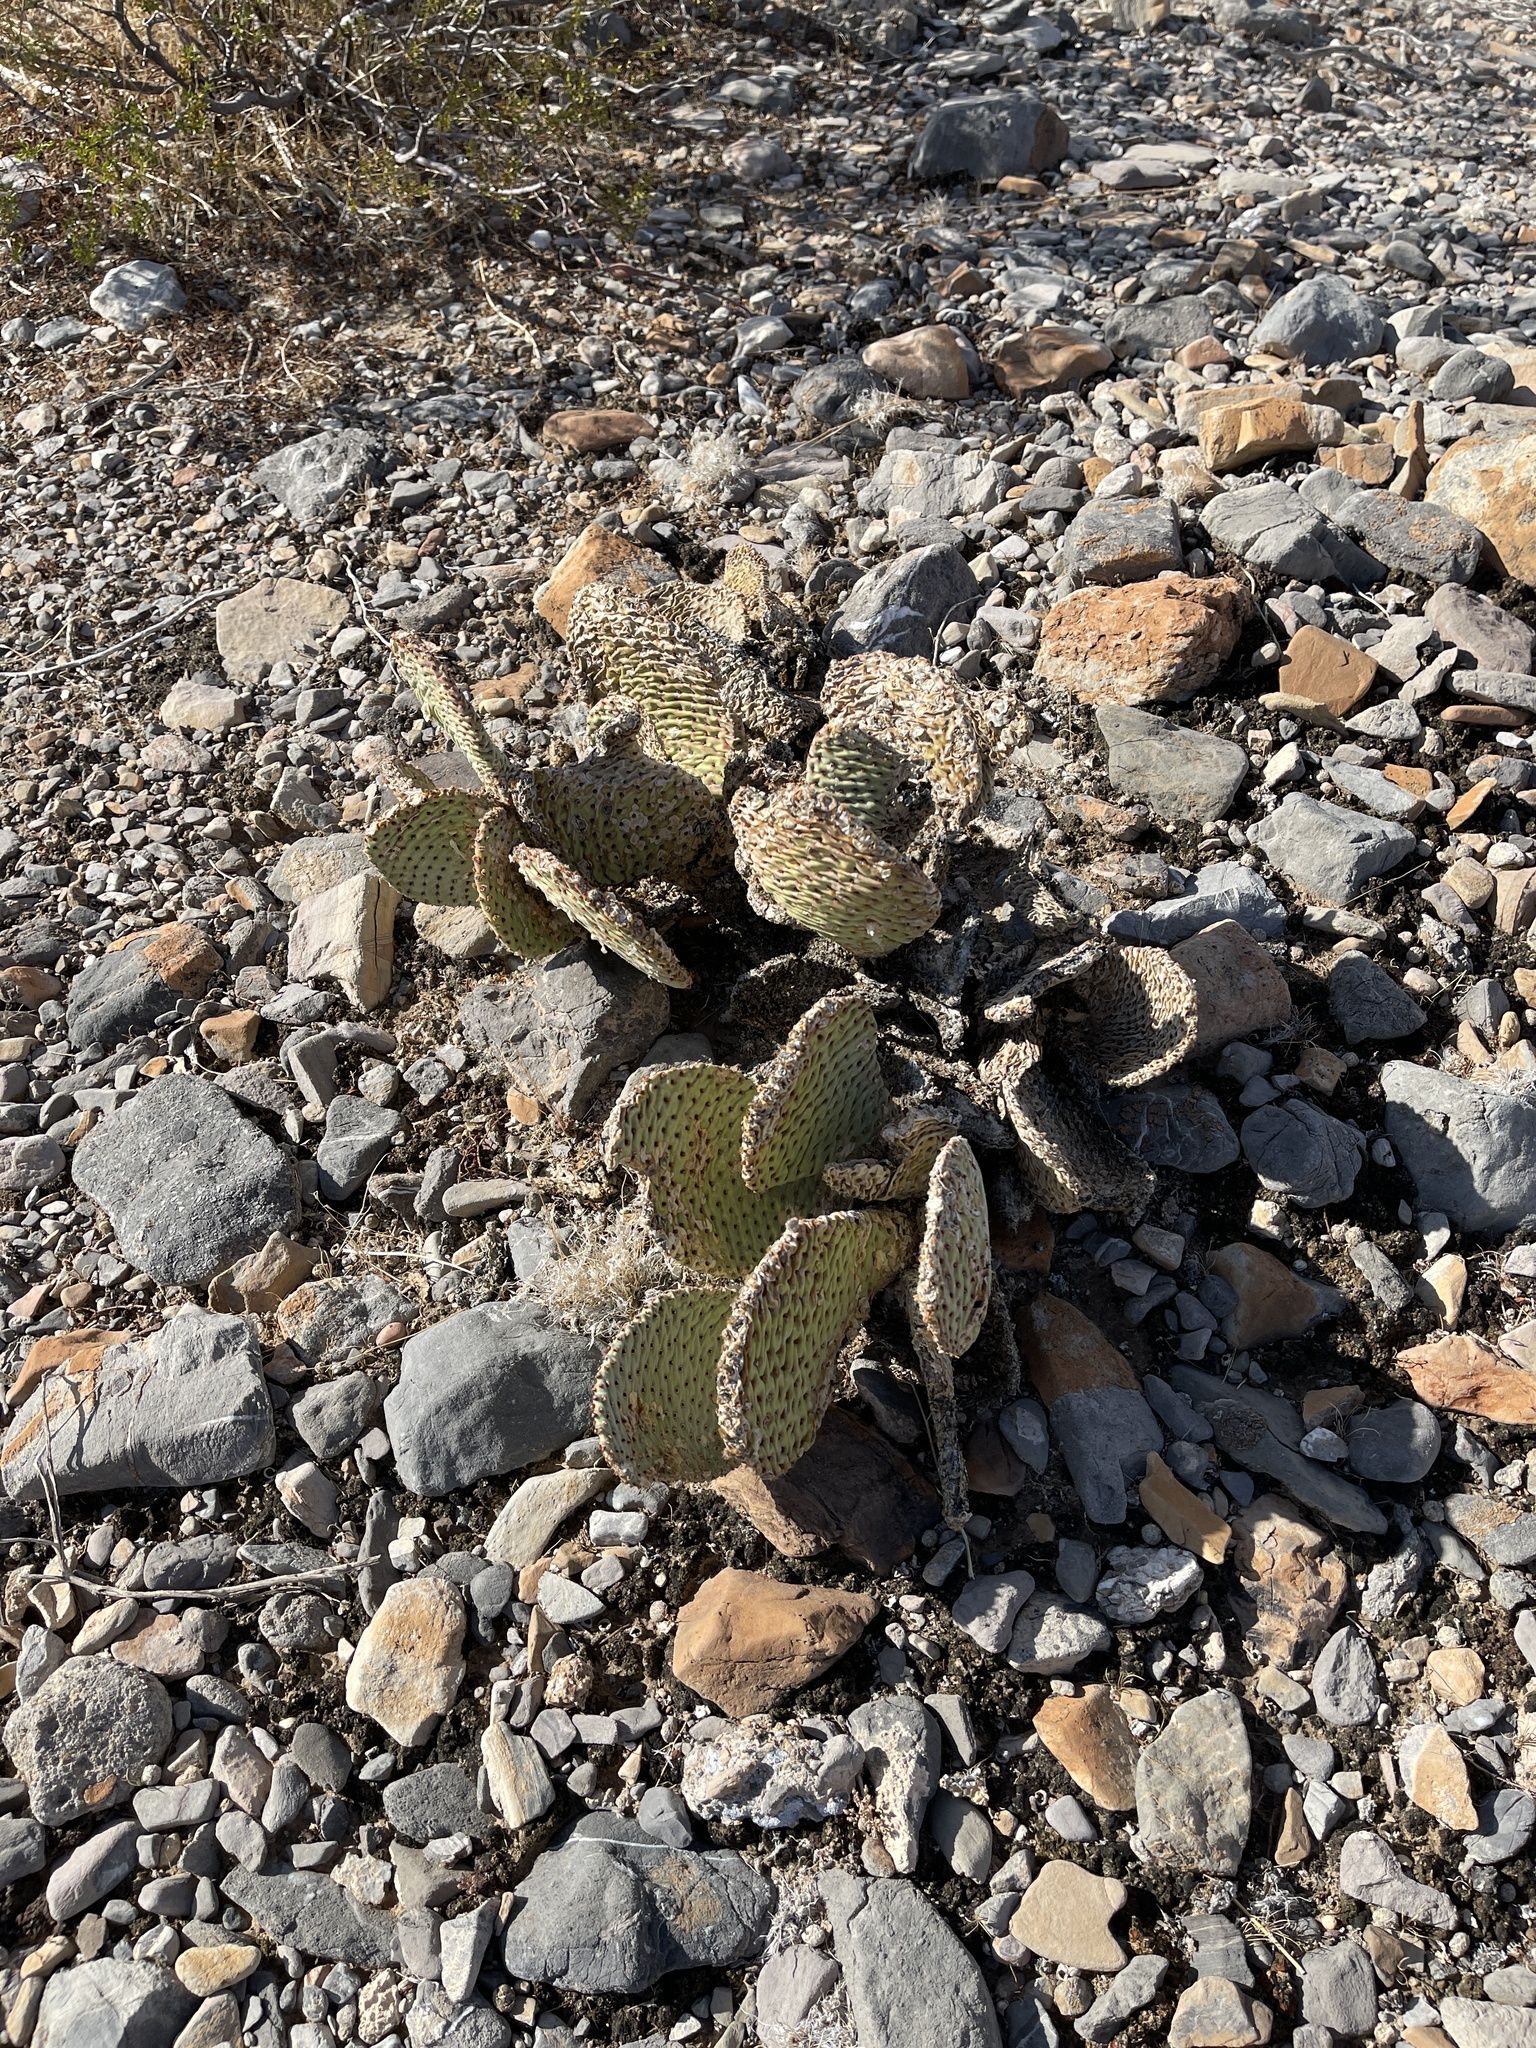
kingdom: Plantae
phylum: Tracheophyta
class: Magnoliopsida
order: Caryophyllales
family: Cactaceae
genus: Opuntia
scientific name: Opuntia basilaris
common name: Beavertail prickly-pear
